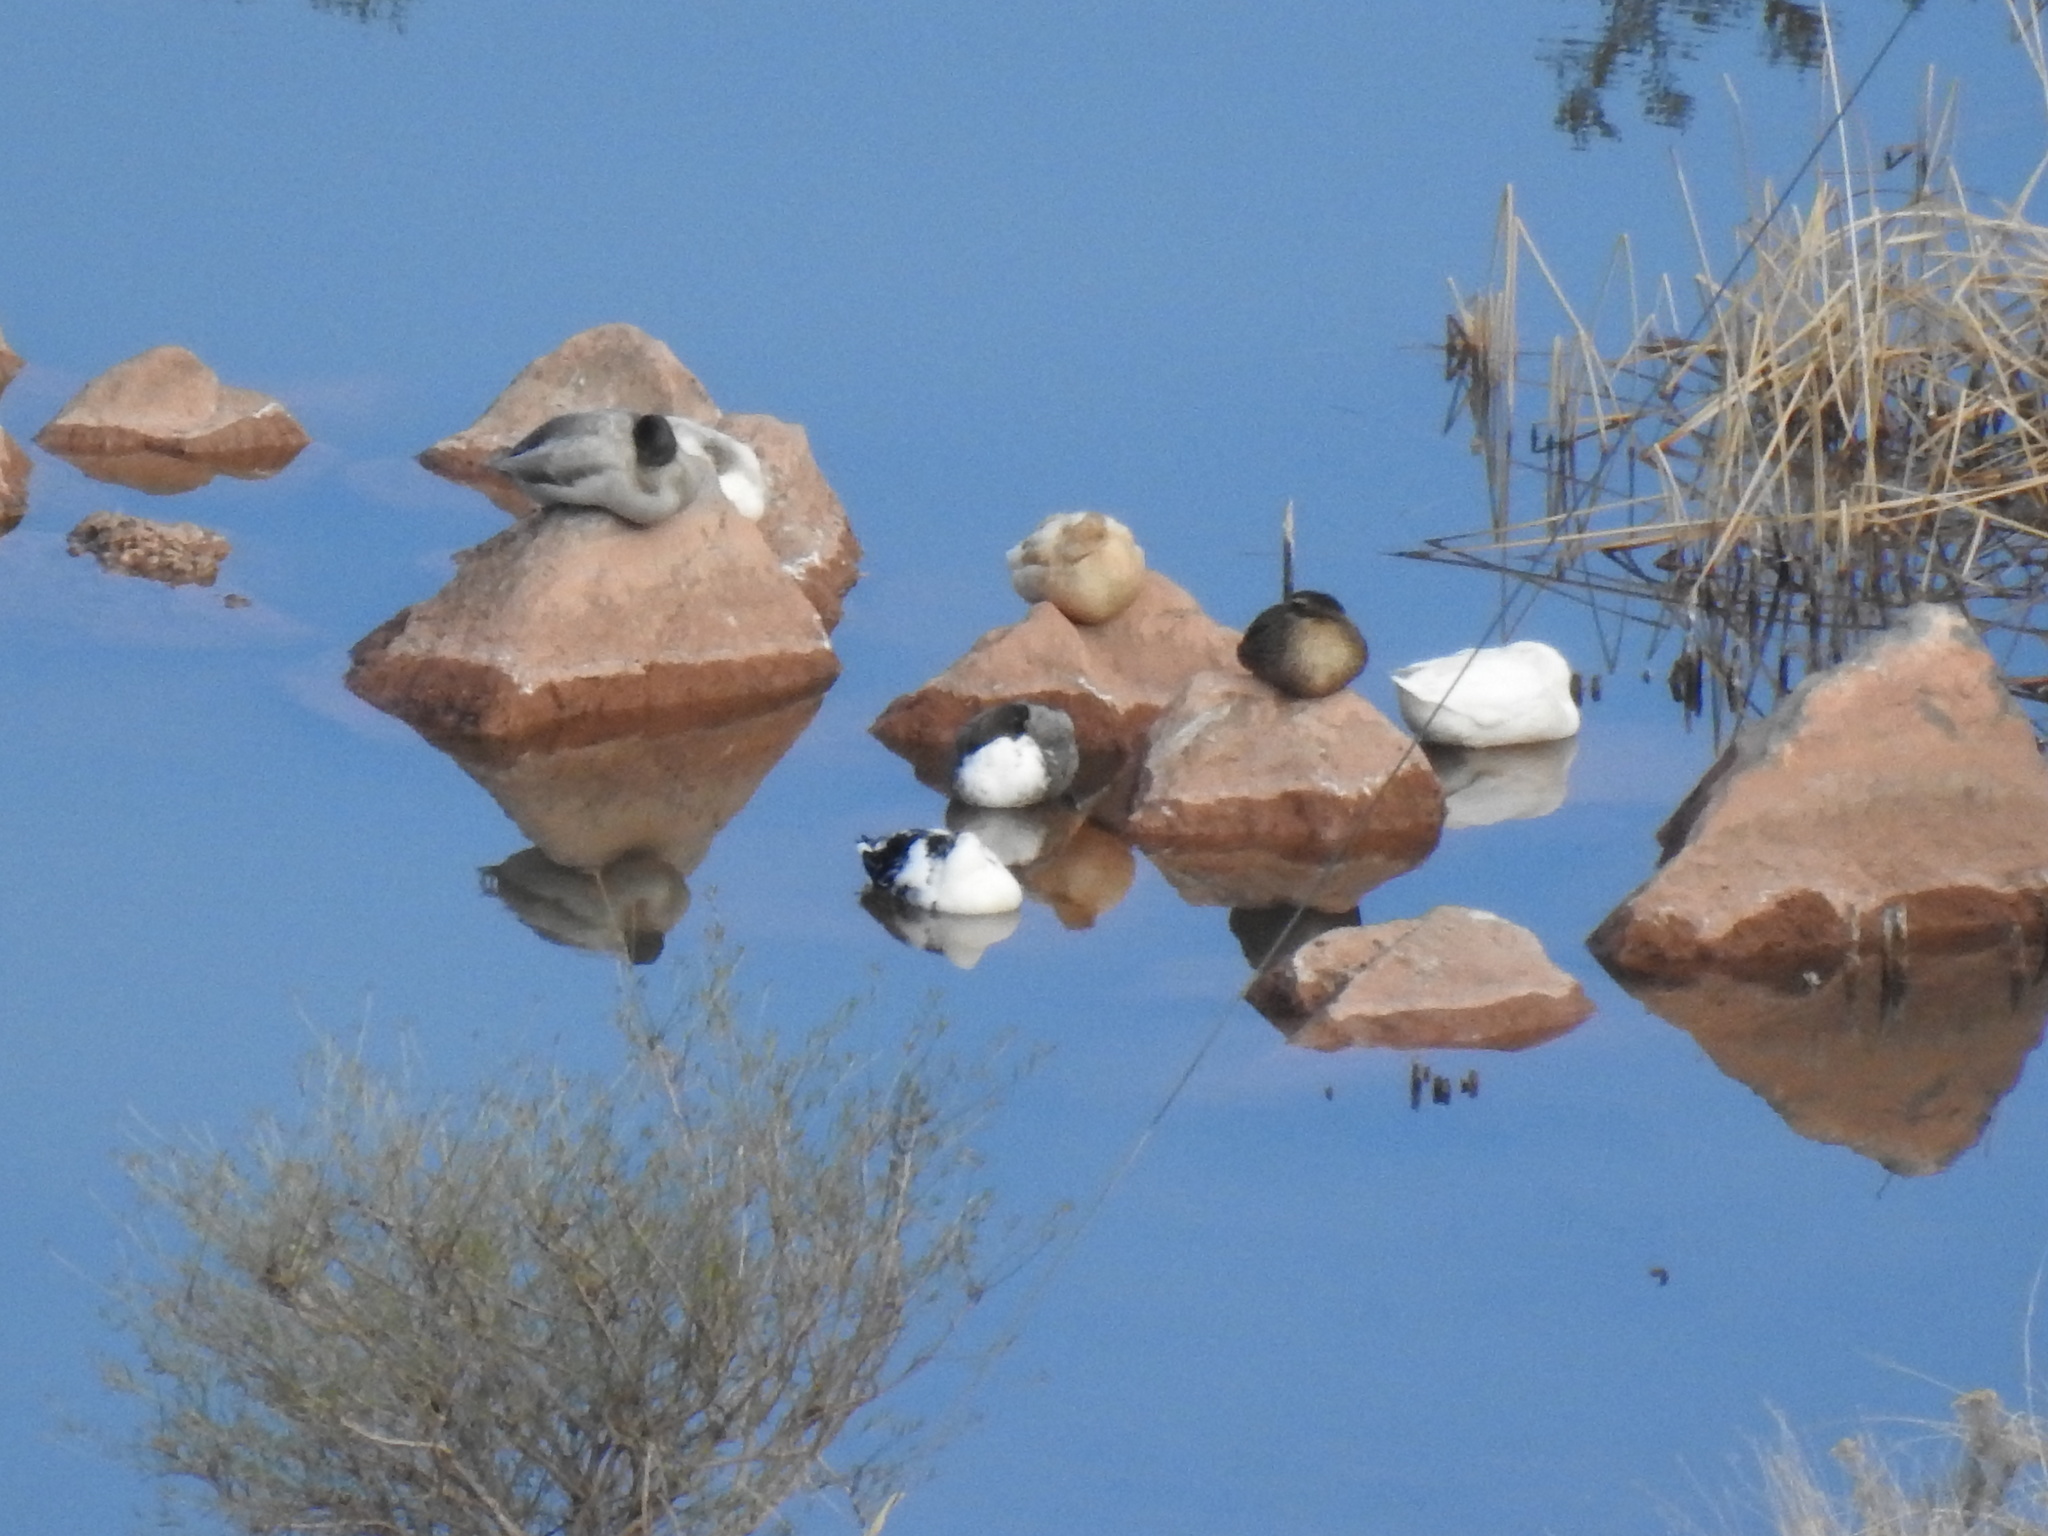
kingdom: Animalia
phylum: Chordata
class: Aves
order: Anseriformes
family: Anatidae
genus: Anas
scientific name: Anas platyrhynchos
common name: Mallard
